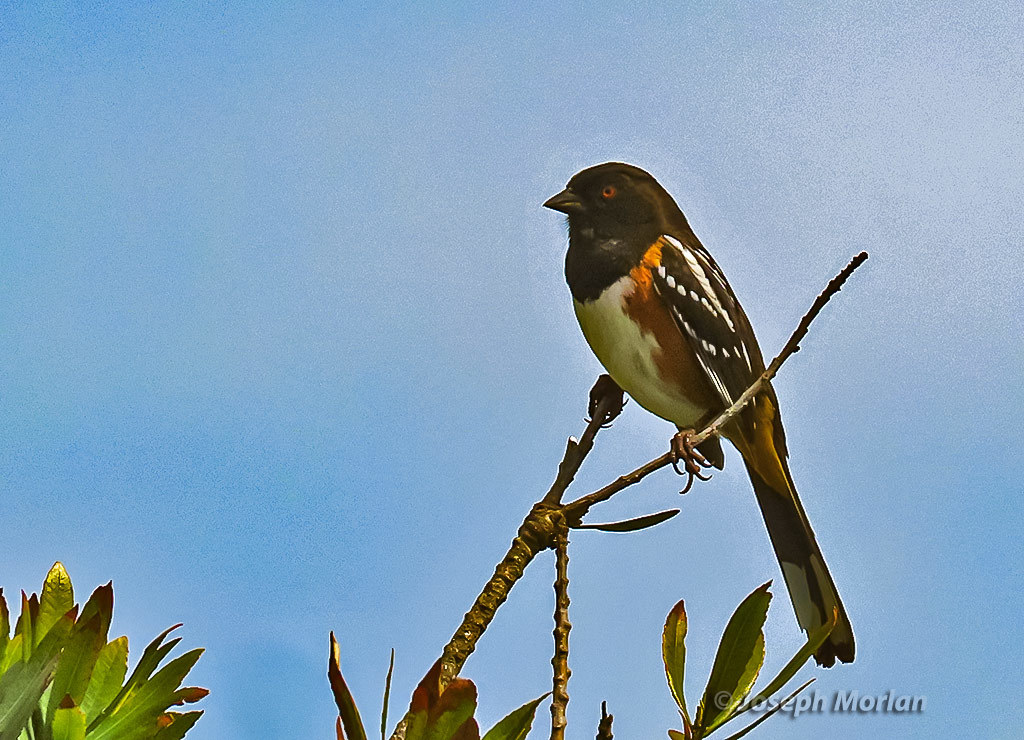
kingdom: Animalia
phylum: Chordata
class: Aves
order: Passeriformes
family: Passerellidae
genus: Pipilo
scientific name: Pipilo maculatus
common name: Spotted towhee
